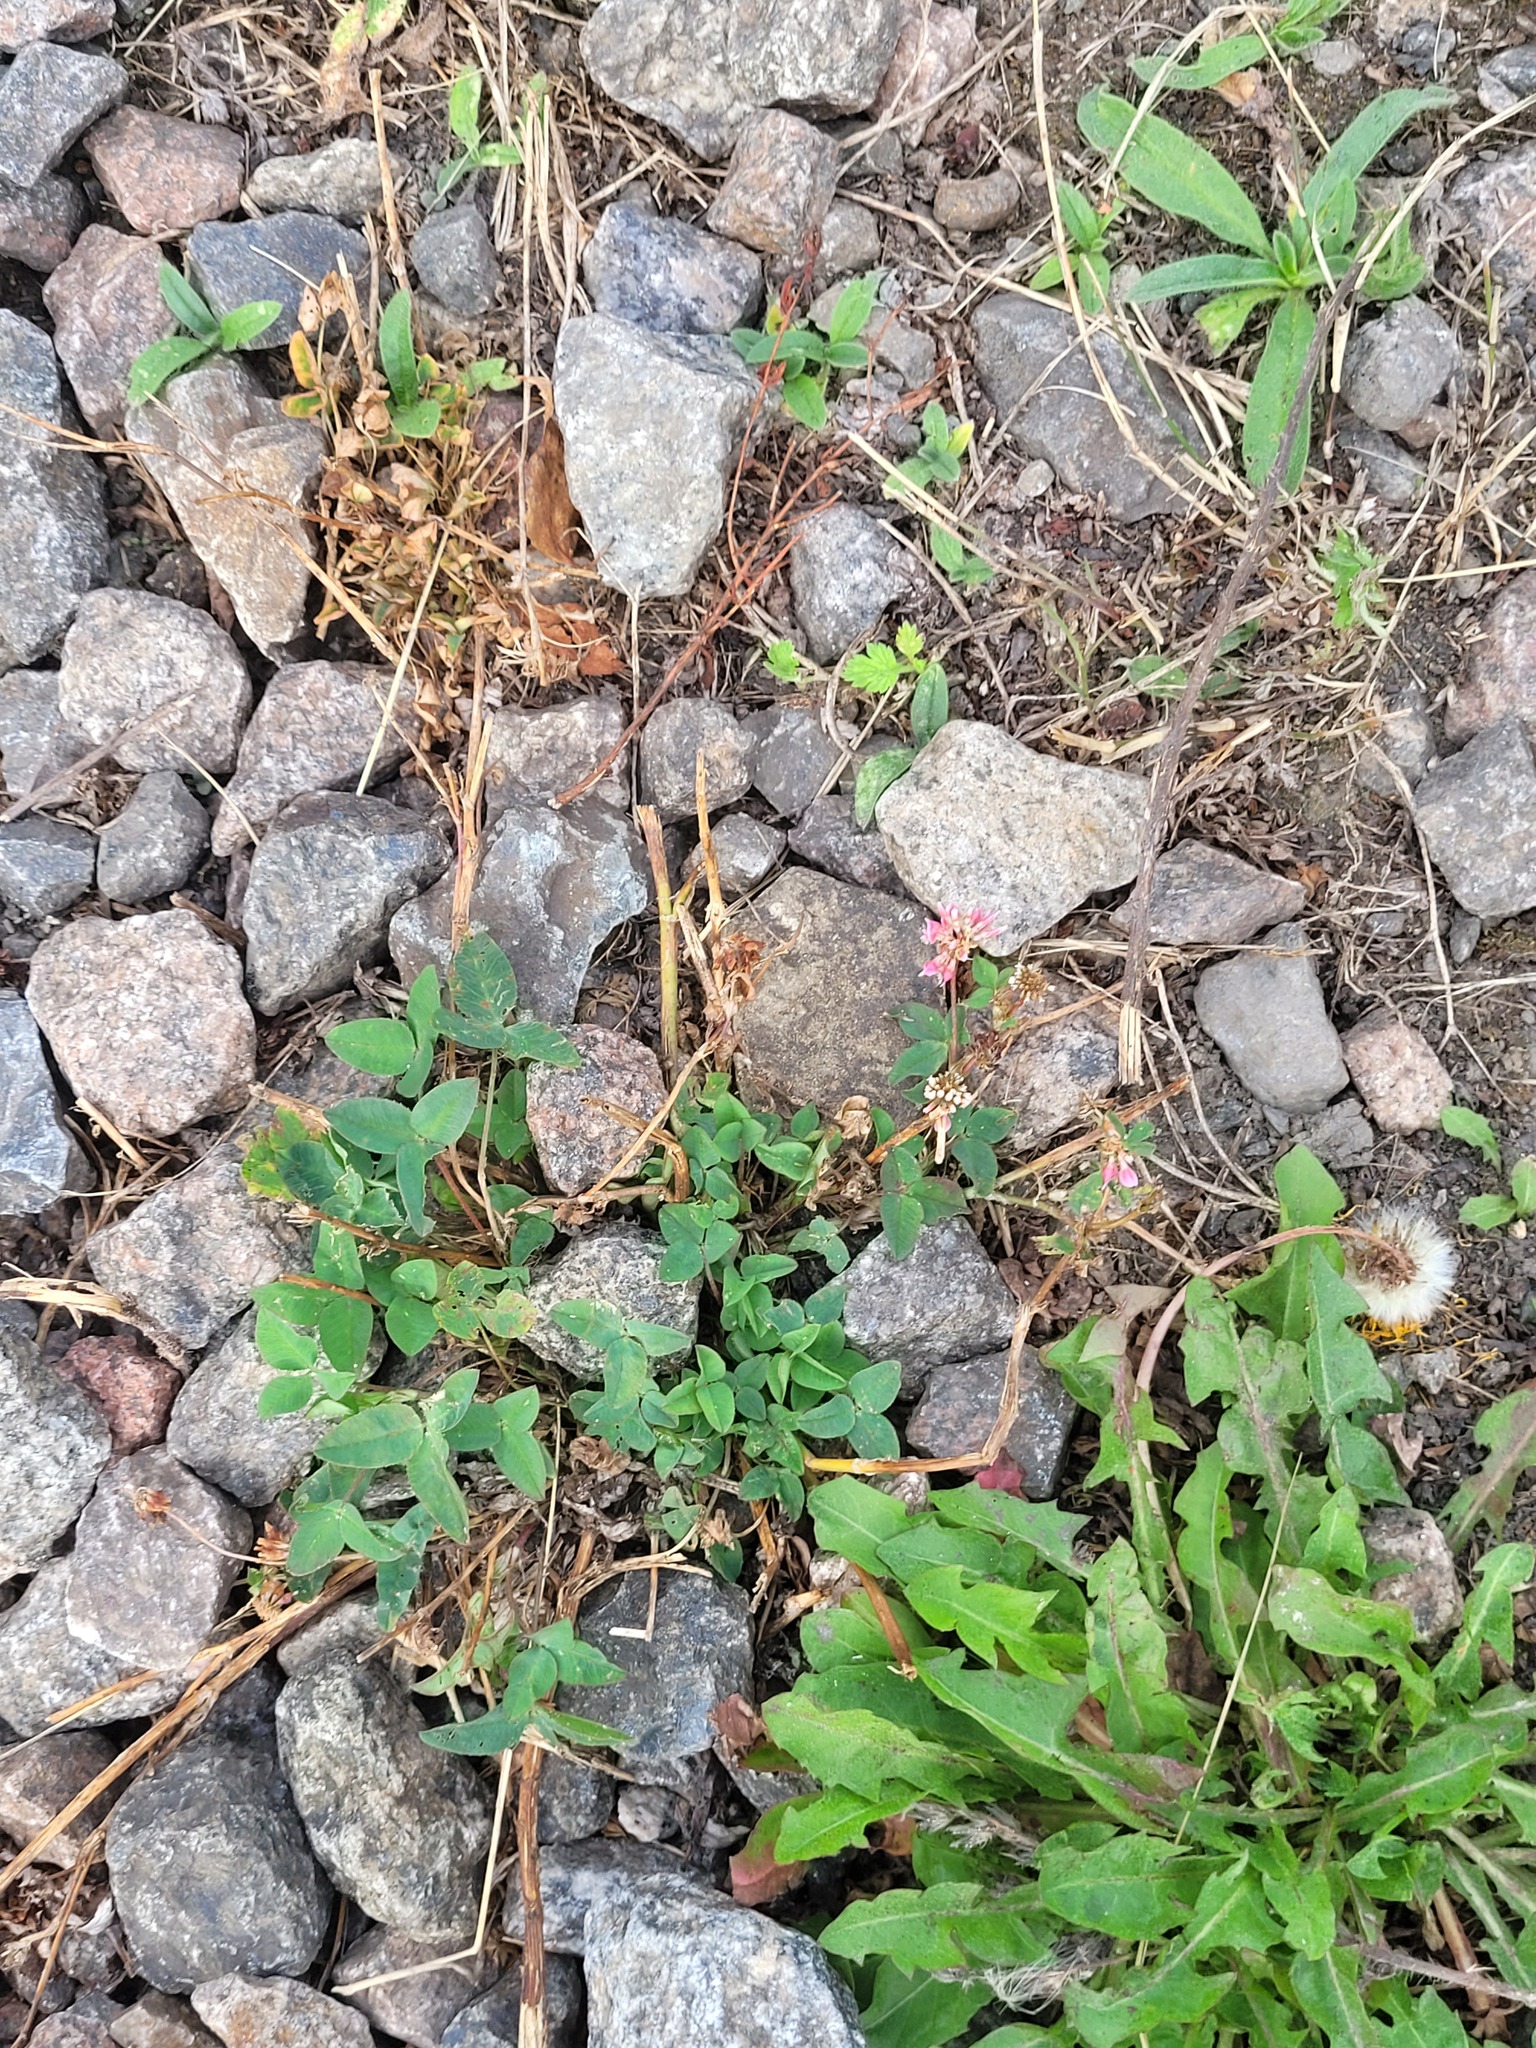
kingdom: Plantae
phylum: Tracheophyta
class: Magnoliopsida
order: Fabales
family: Fabaceae
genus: Trifolium
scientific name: Trifolium hybridum
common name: Alsike clover
